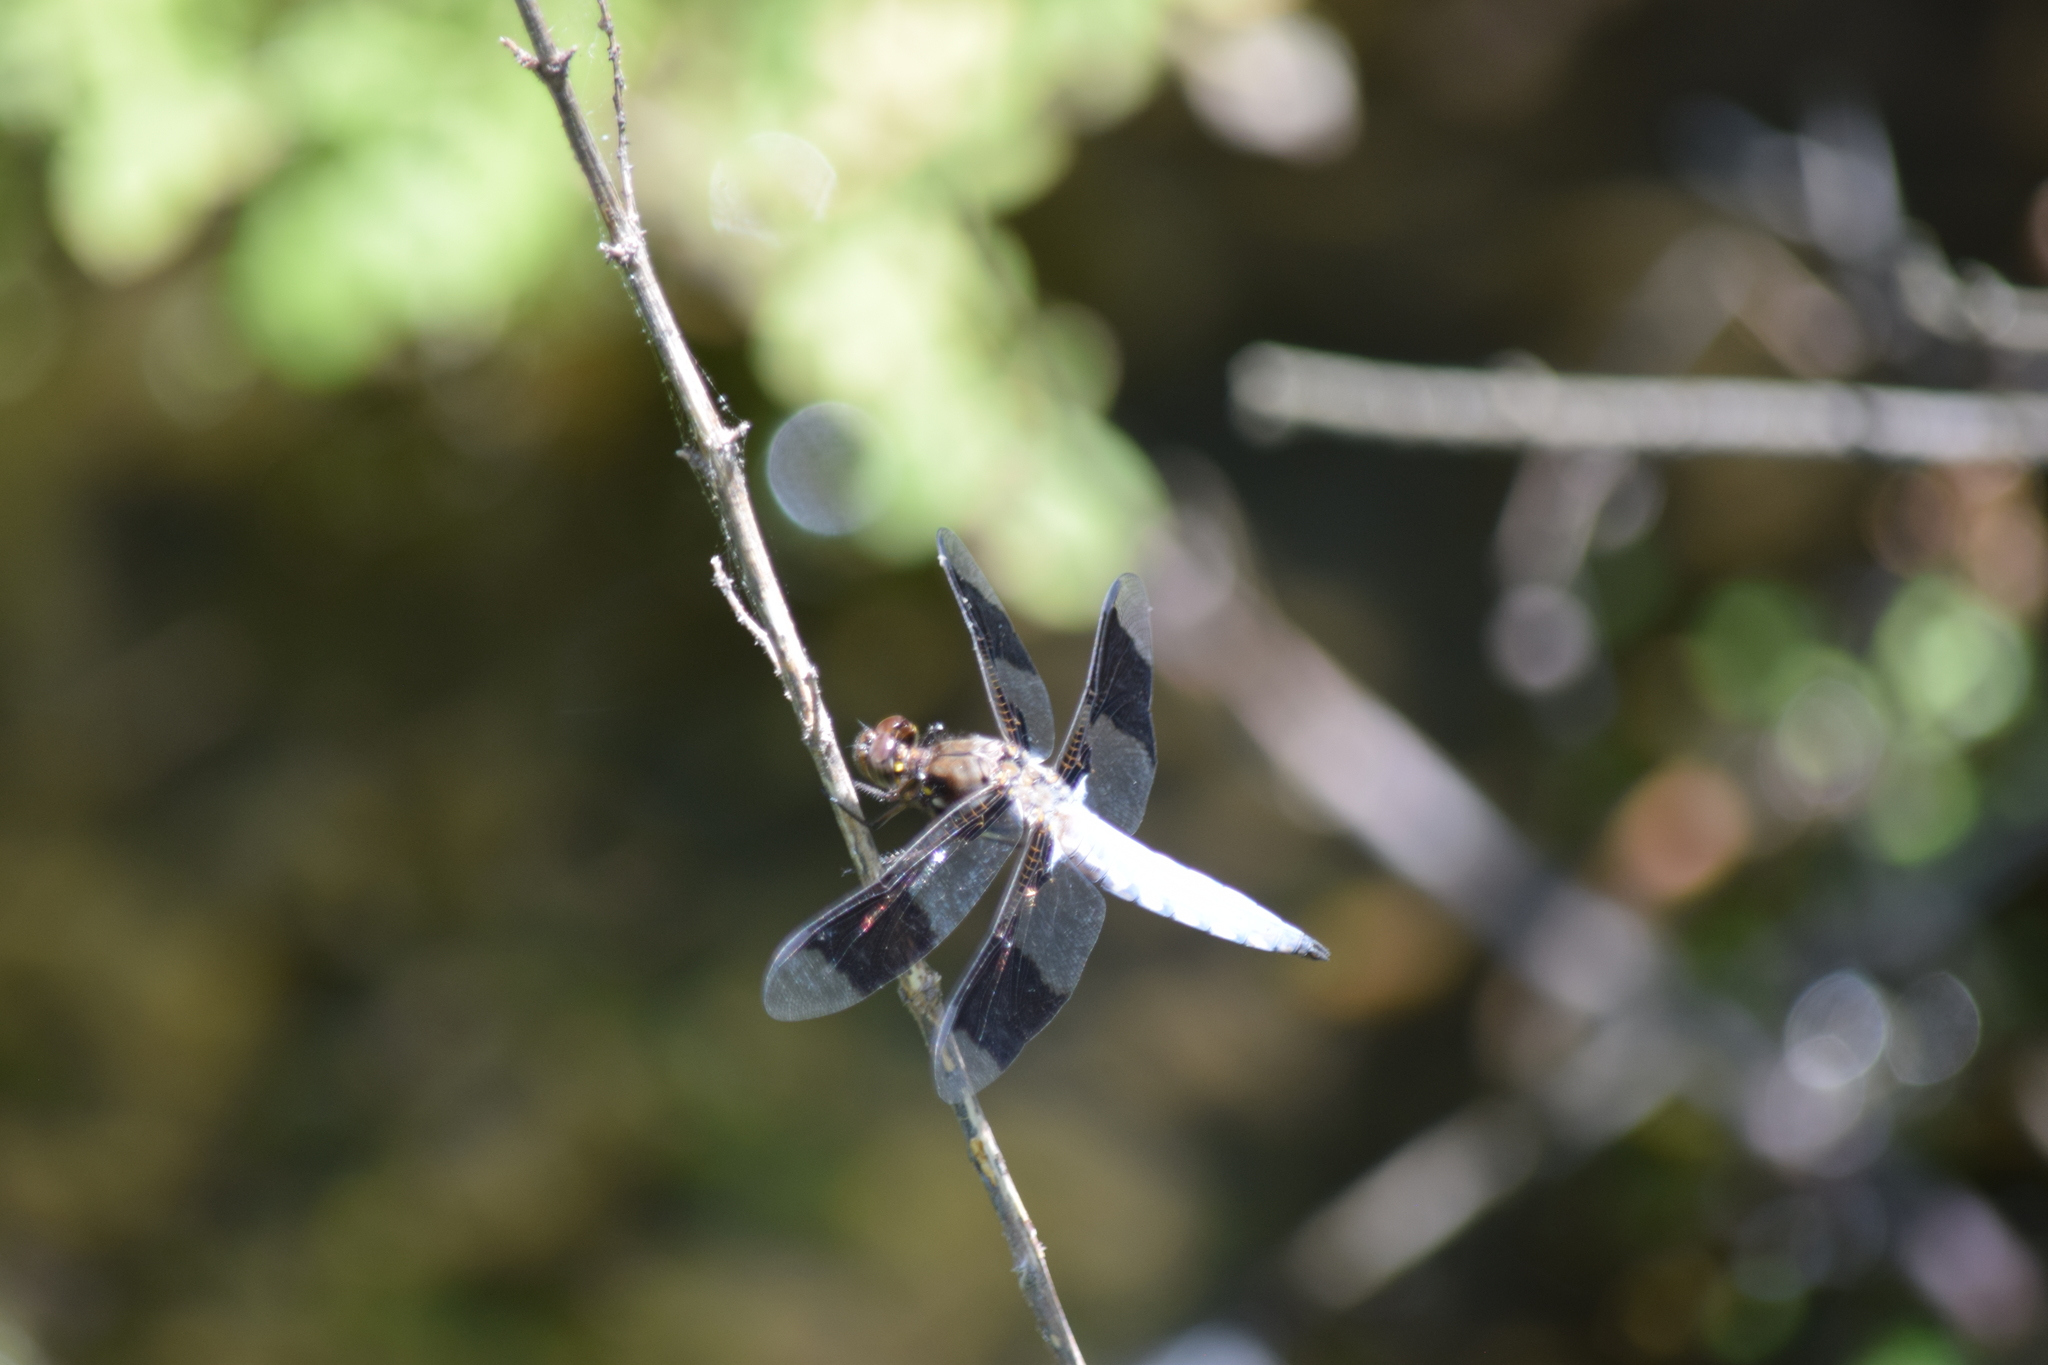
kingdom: Animalia
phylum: Arthropoda
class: Insecta
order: Odonata
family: Libellulidae
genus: Plathemis
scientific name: Plathemis lydia
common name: Common whitetail
